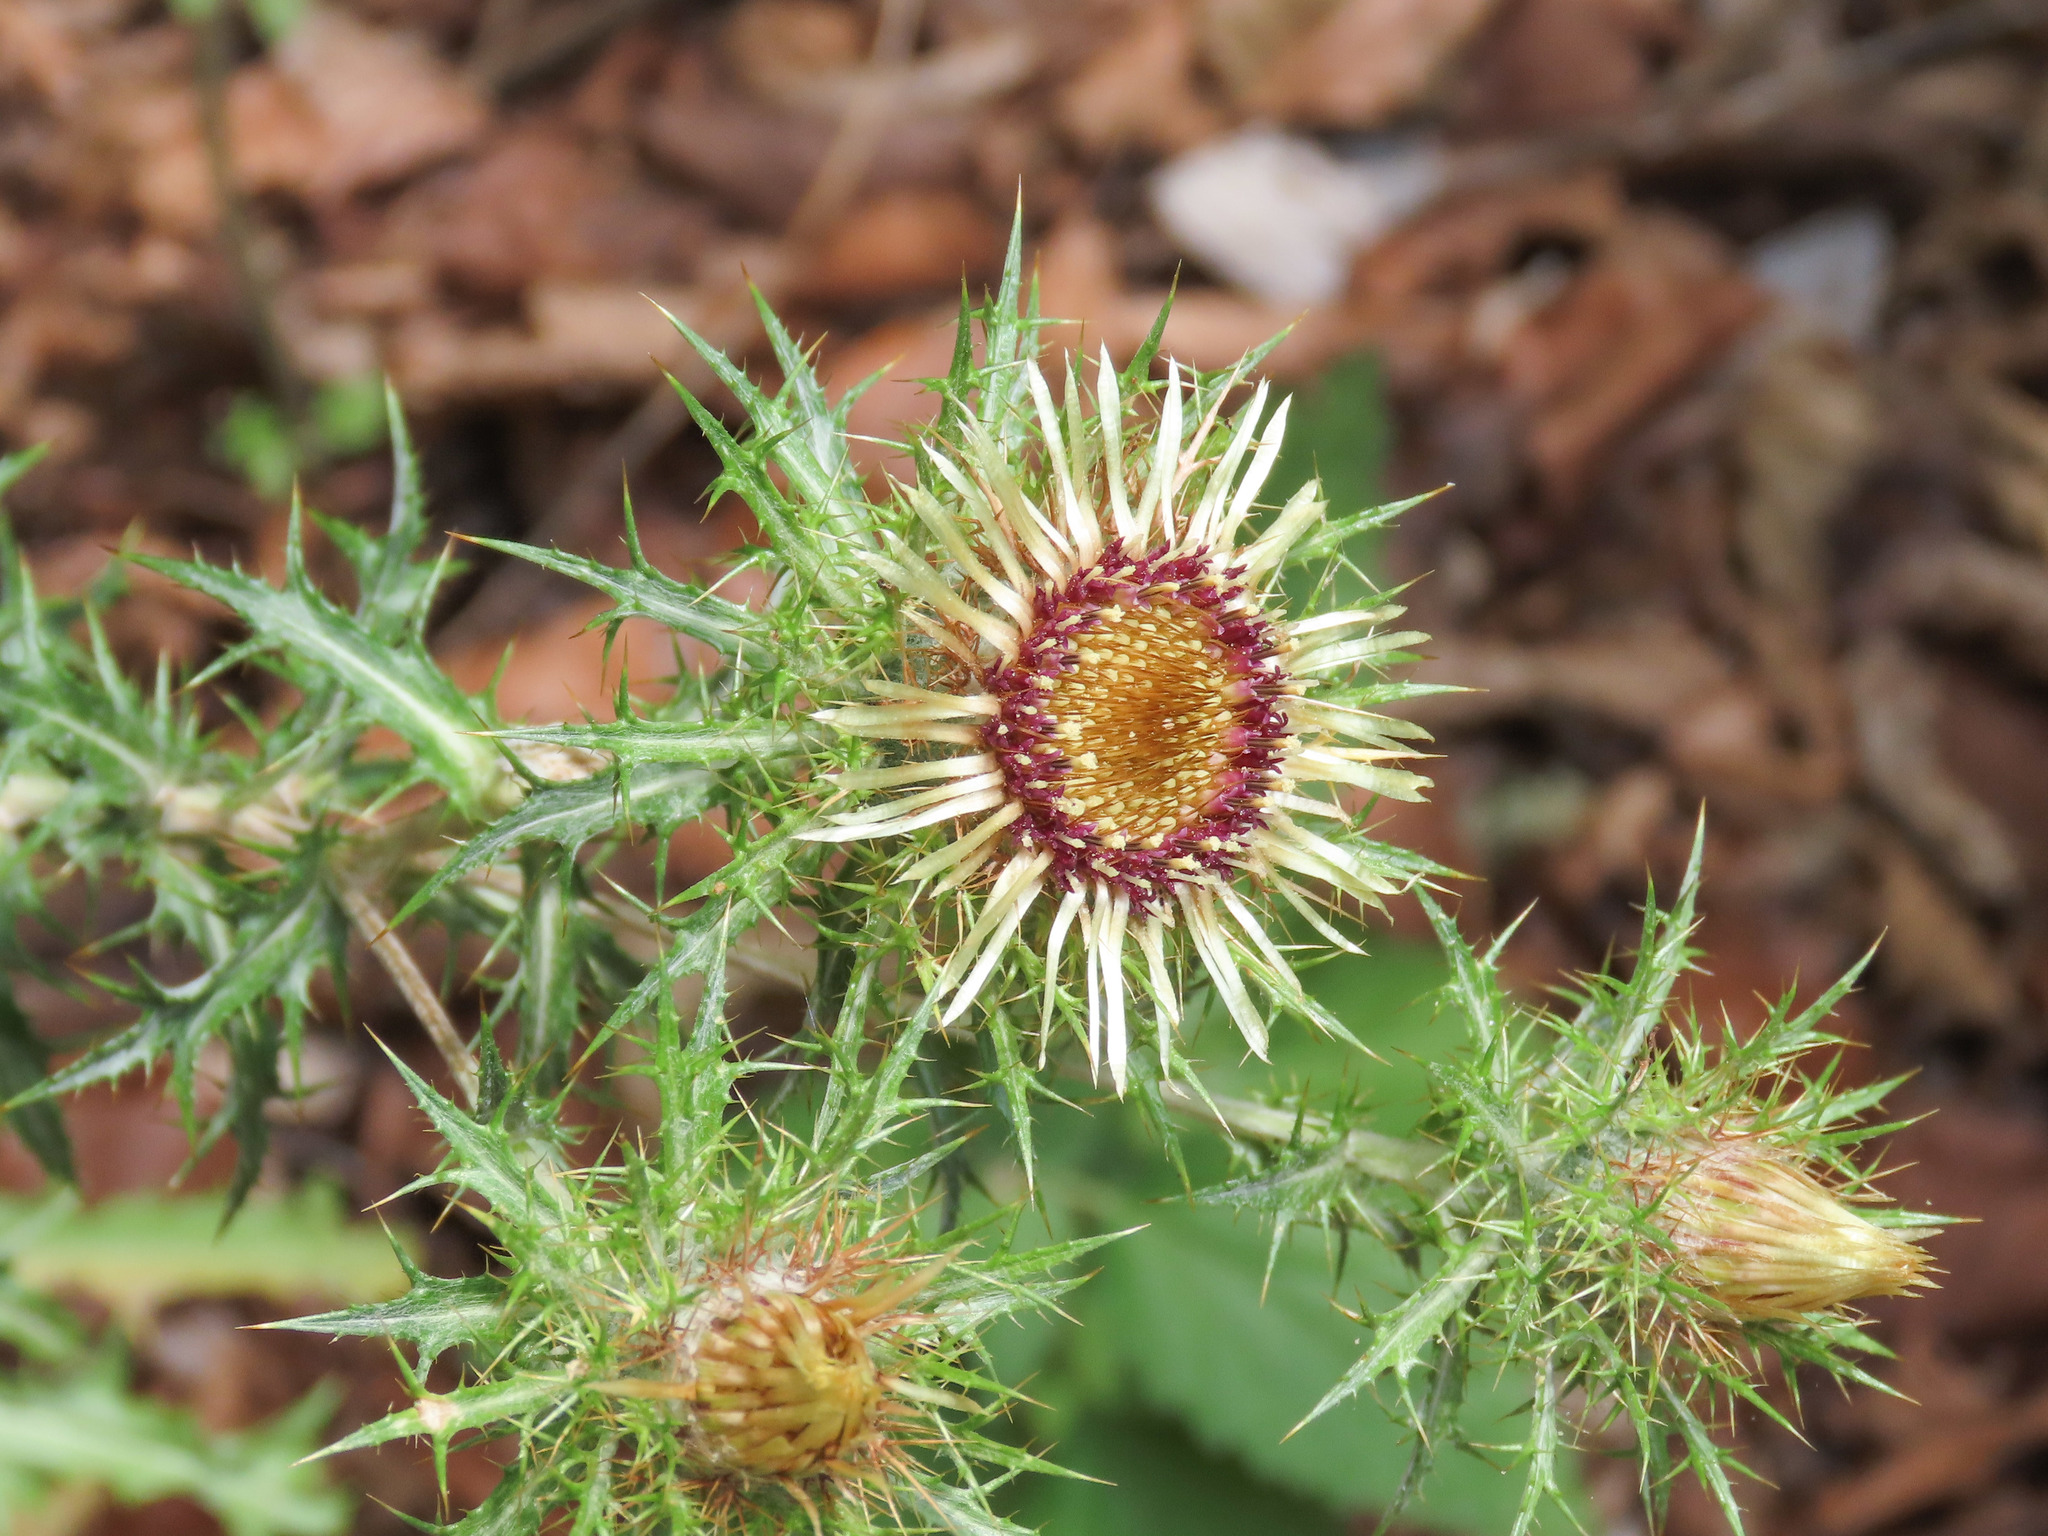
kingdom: Plantae
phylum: Tracheophyta
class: Magnoliopsida
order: Asterales
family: Asteraceae
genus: Carlina
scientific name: Carlina vulgaris
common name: Carline thistle
